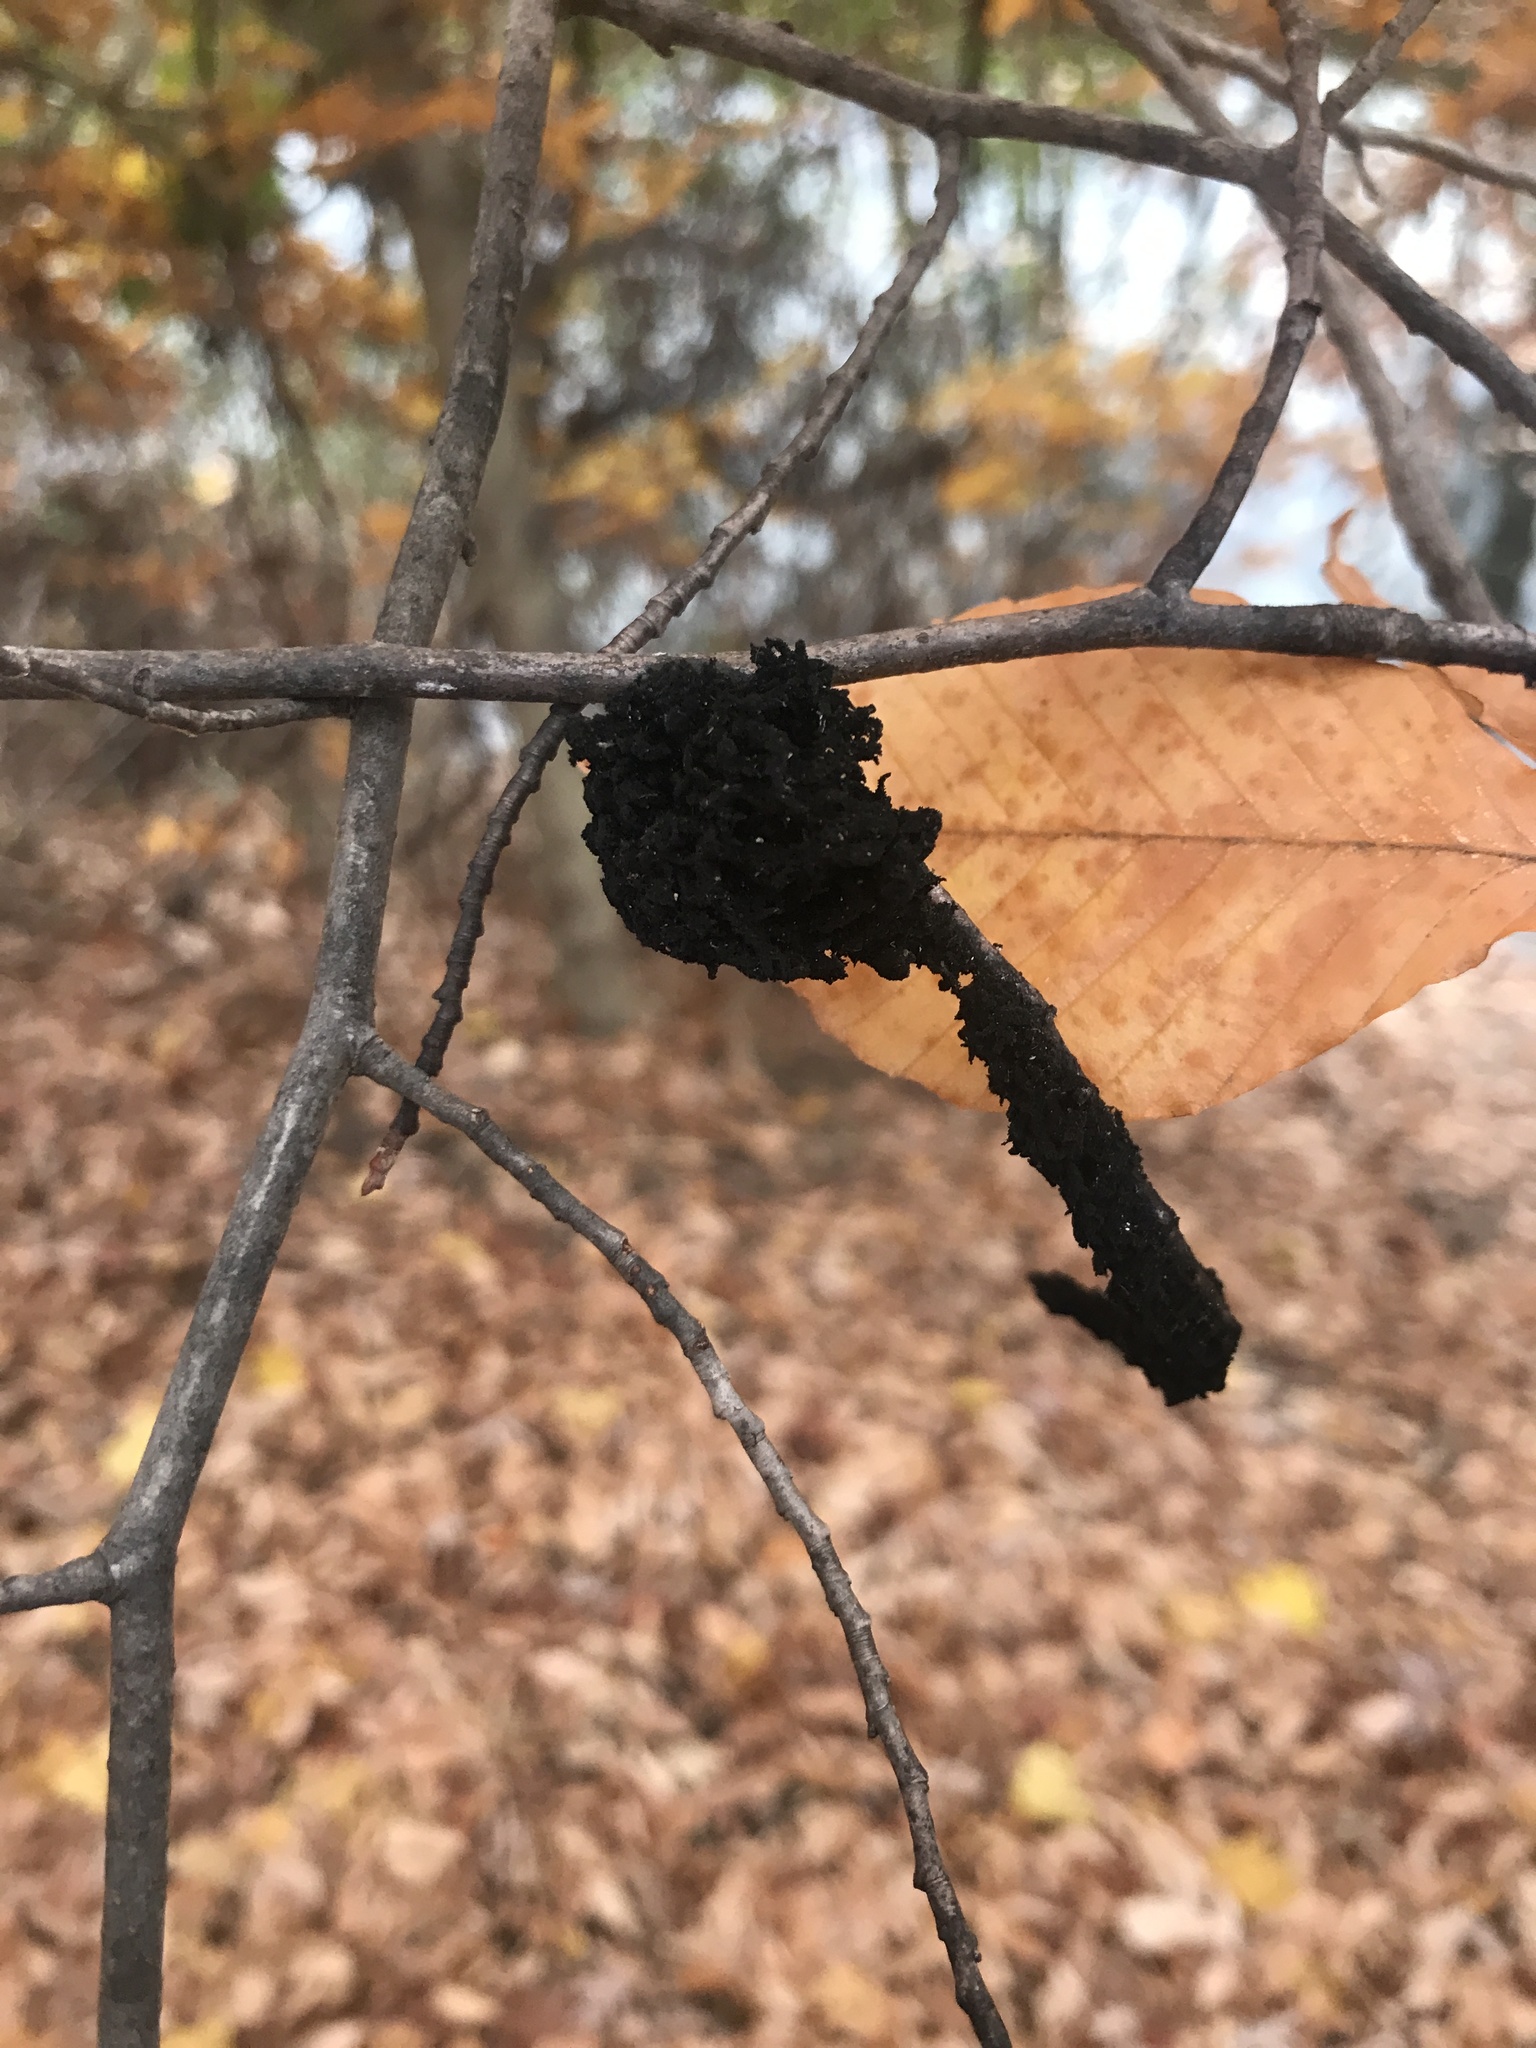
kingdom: Fungi
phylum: Ascomycota
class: Dothideomycetes
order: Capnodiales
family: Capnodiaceae
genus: Scorias
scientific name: Scorias spongiosa
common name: Black sooty mold
